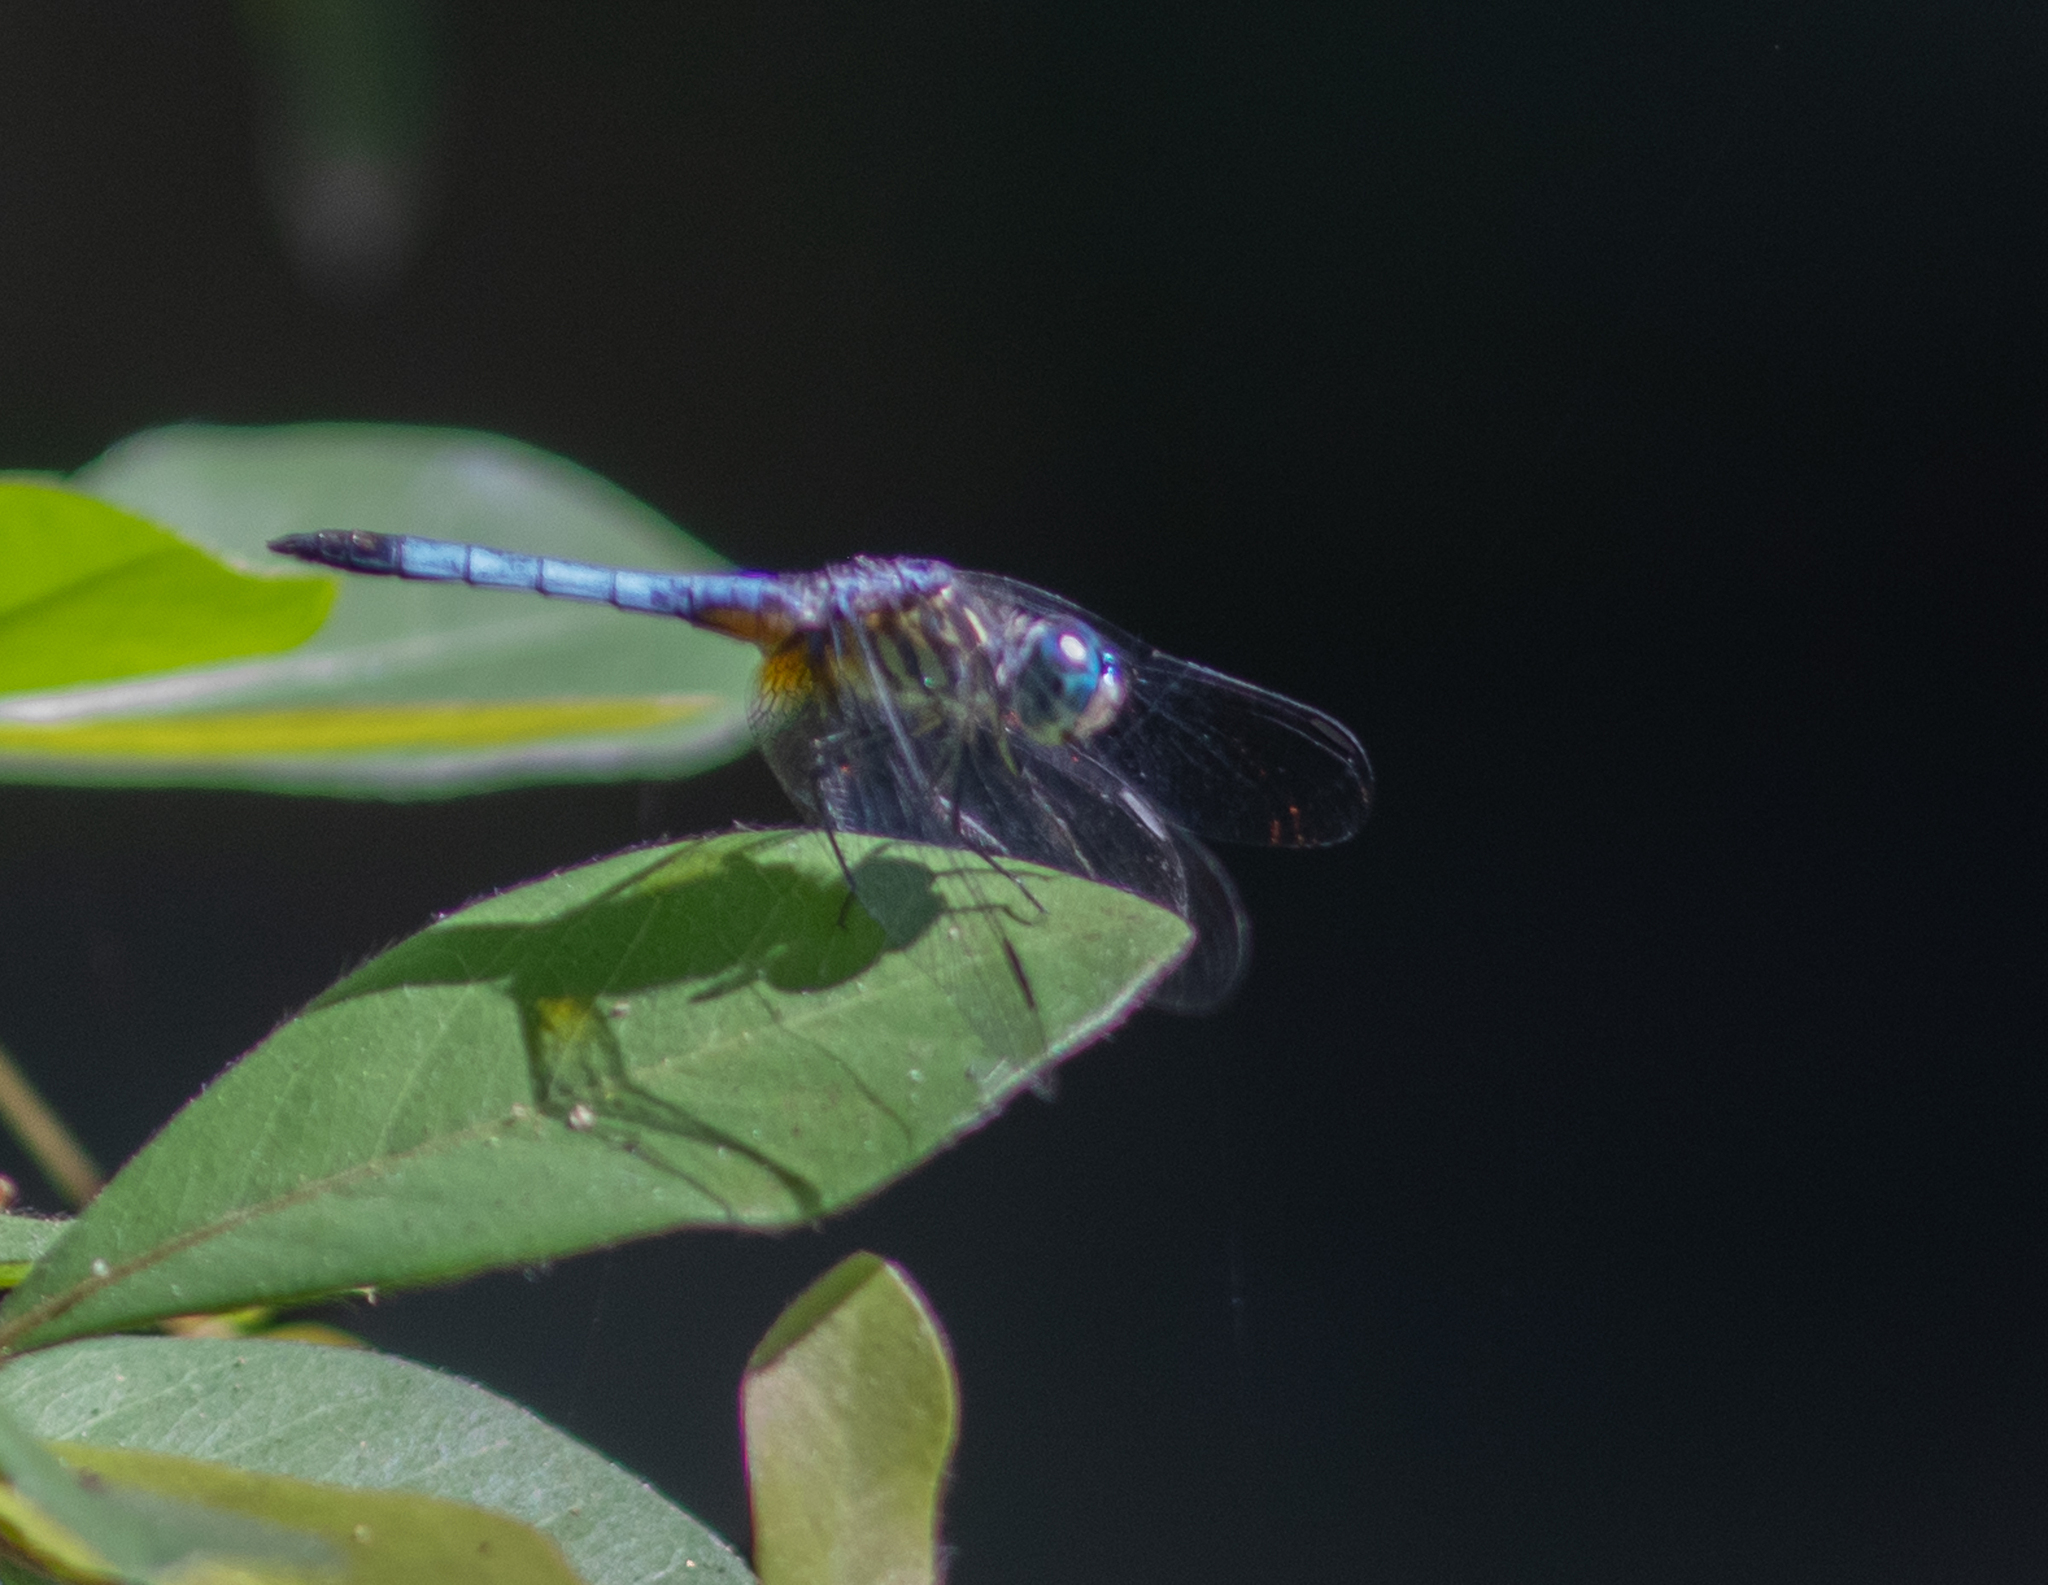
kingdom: Animalia
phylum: Arthropoda
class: Insecta
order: Odonata
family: Libellulidae
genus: Pachydiplax
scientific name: Pachydiplax longipennis
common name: Blue dasher
